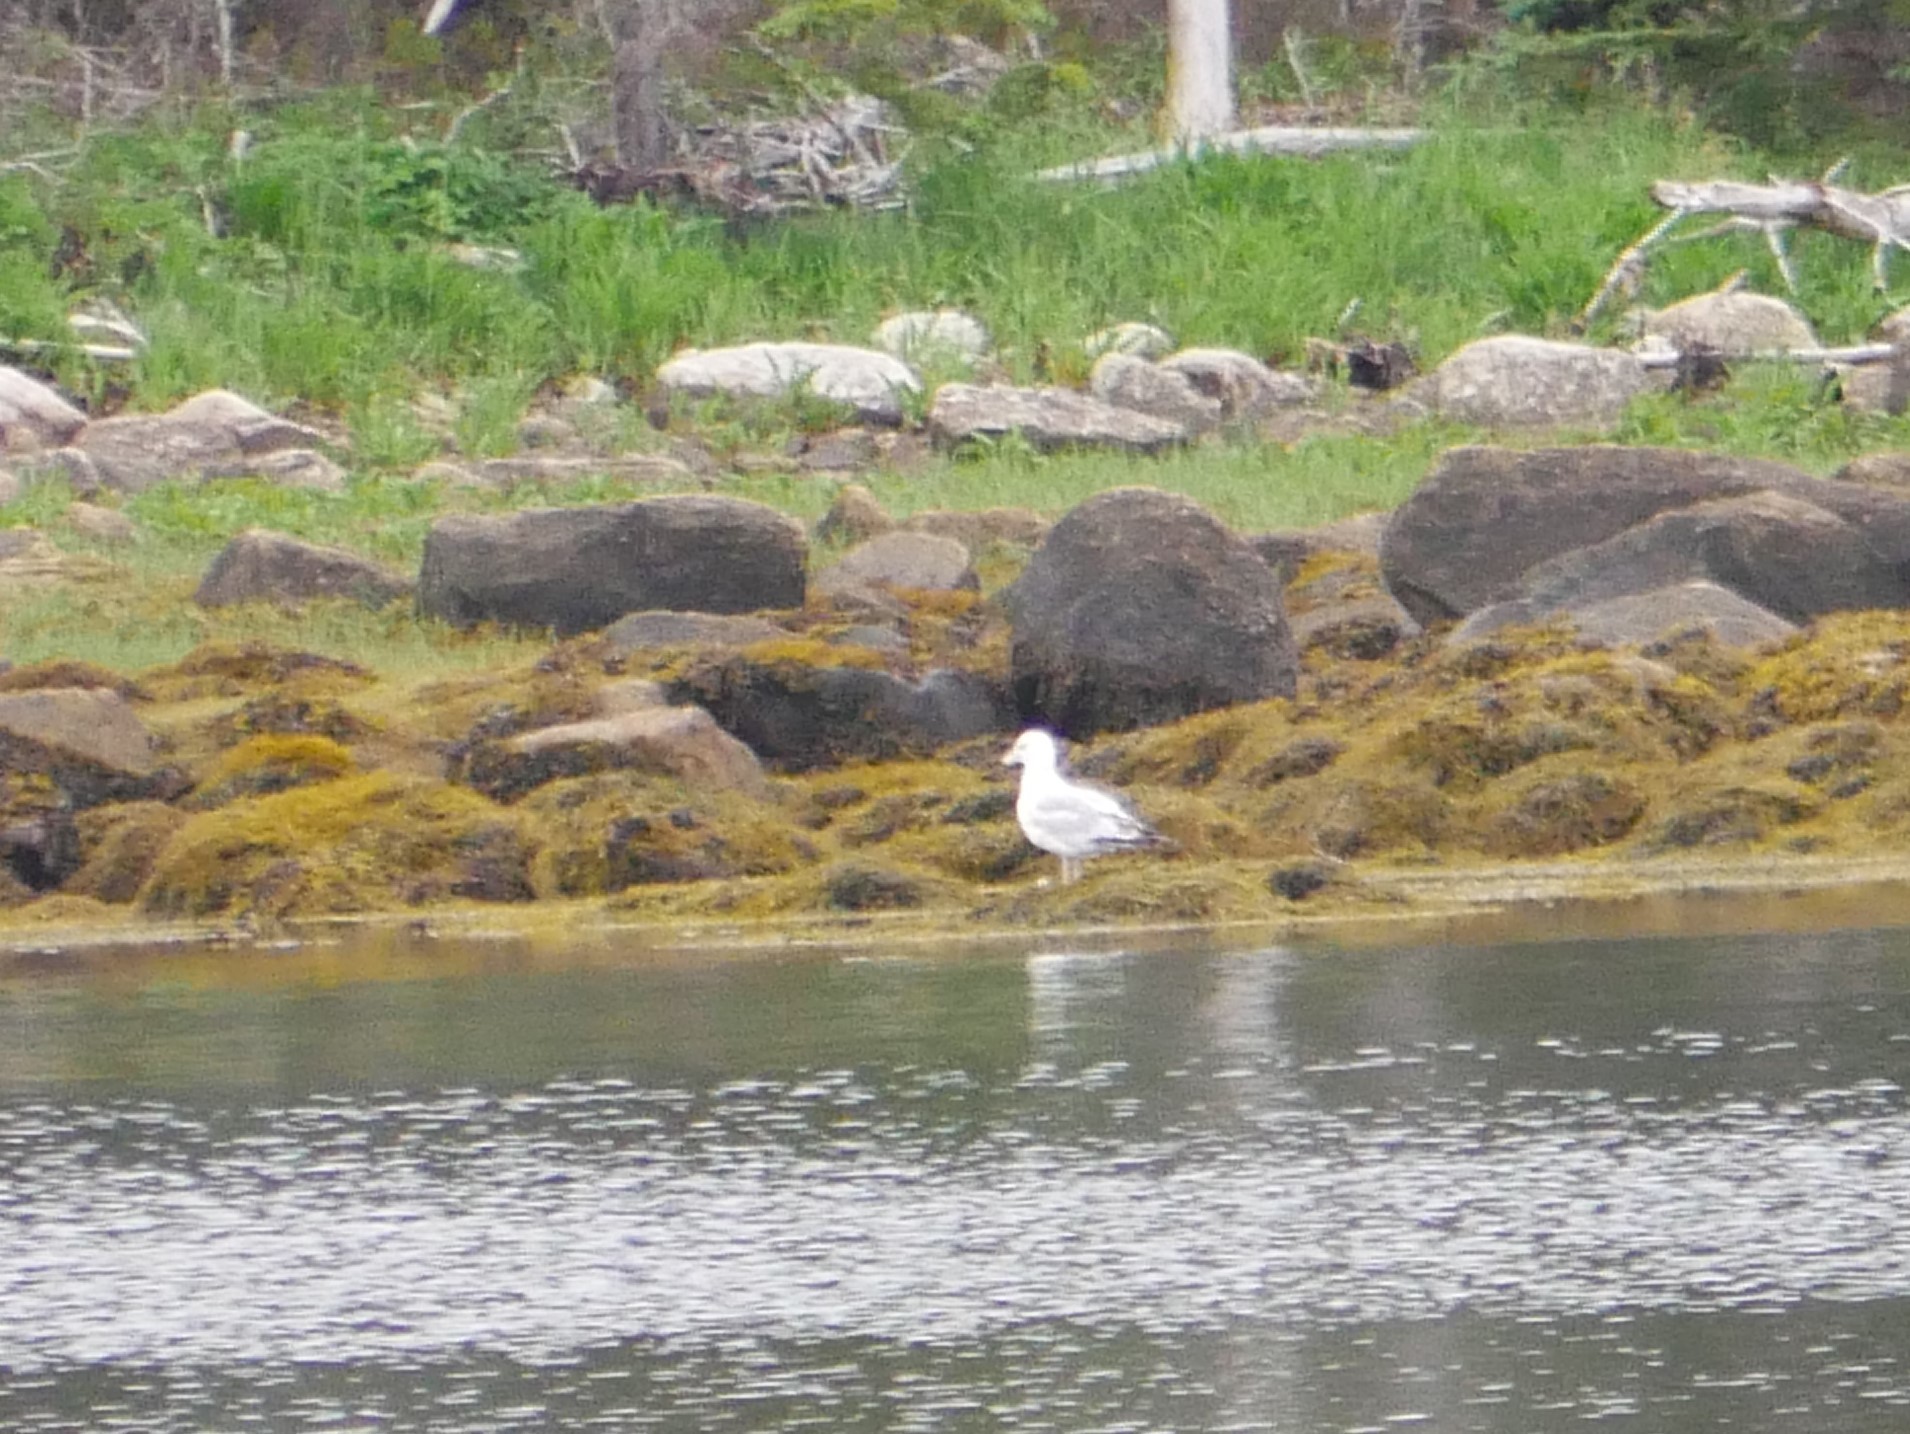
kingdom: Animalia
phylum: Chordata
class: Aves
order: Charadriiformes
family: Laridae
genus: Larus
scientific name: Larus argentatus
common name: Herring gull
